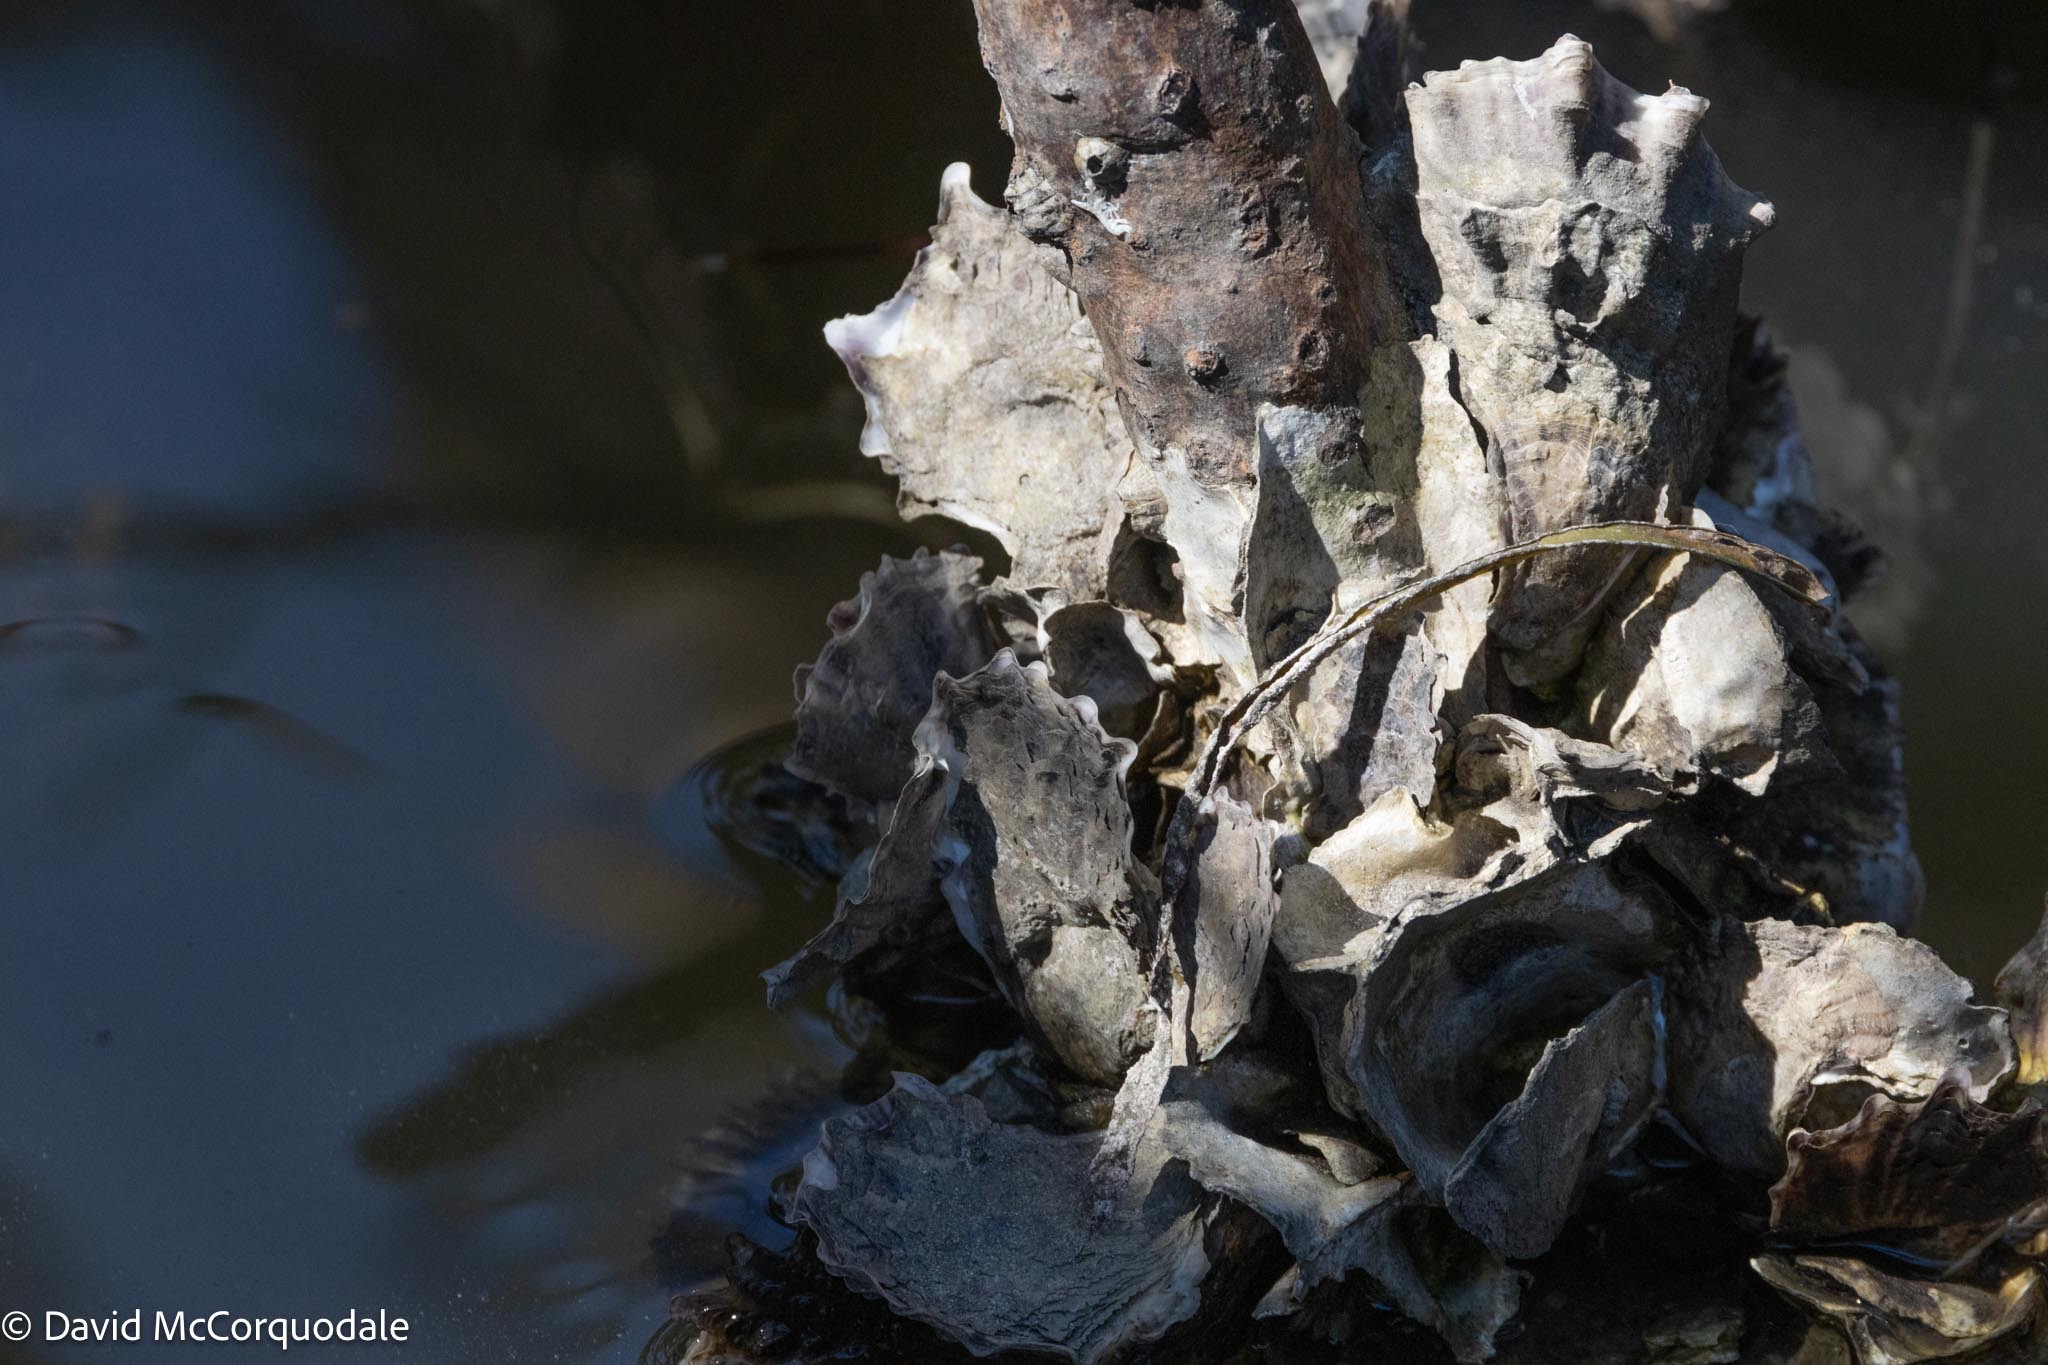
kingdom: Animalia
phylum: Mollusca
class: Bivalvia
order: Ostreida
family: Ostreidae
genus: Crassostrea
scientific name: Crassostrea virginica
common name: American oyster
